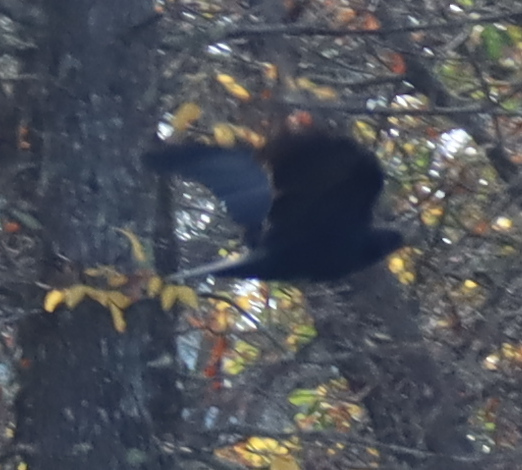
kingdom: Animalia
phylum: Chordata
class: Aves
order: Passeriformes
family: Corvidae
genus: Corvus
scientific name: Corvus brachyrhynchos
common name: American crow
